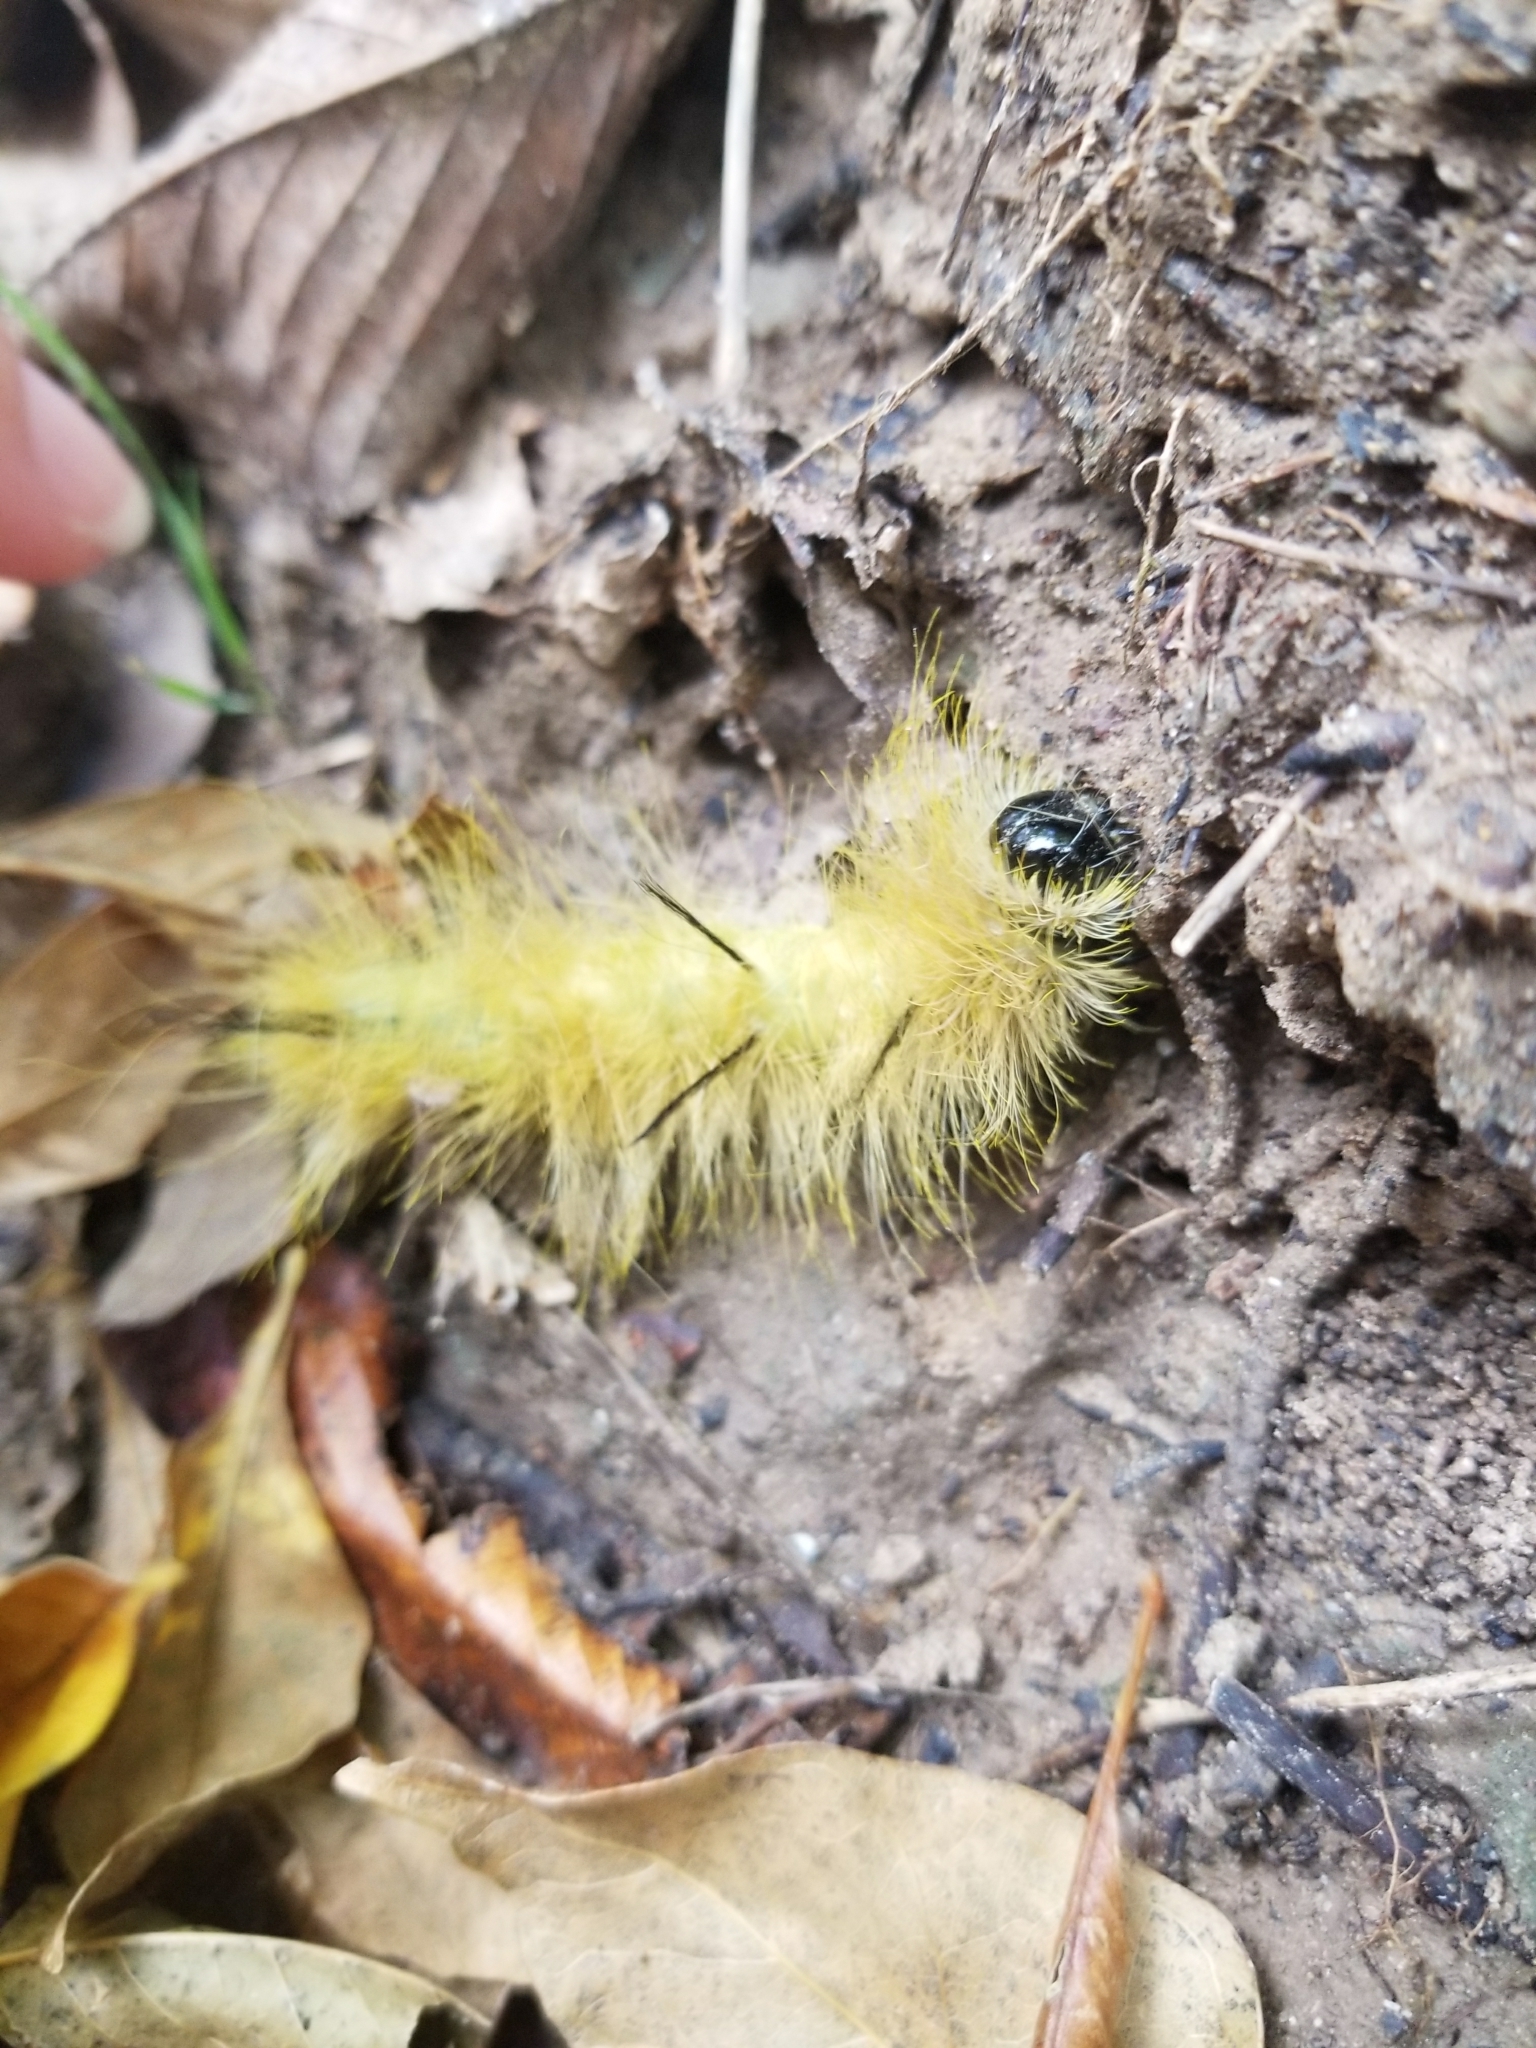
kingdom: Animalia
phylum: Arthropoda
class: Insecta
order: Lepidoptera
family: Noctuidae
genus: Acronicta
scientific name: Acronicta americana
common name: American dagger
